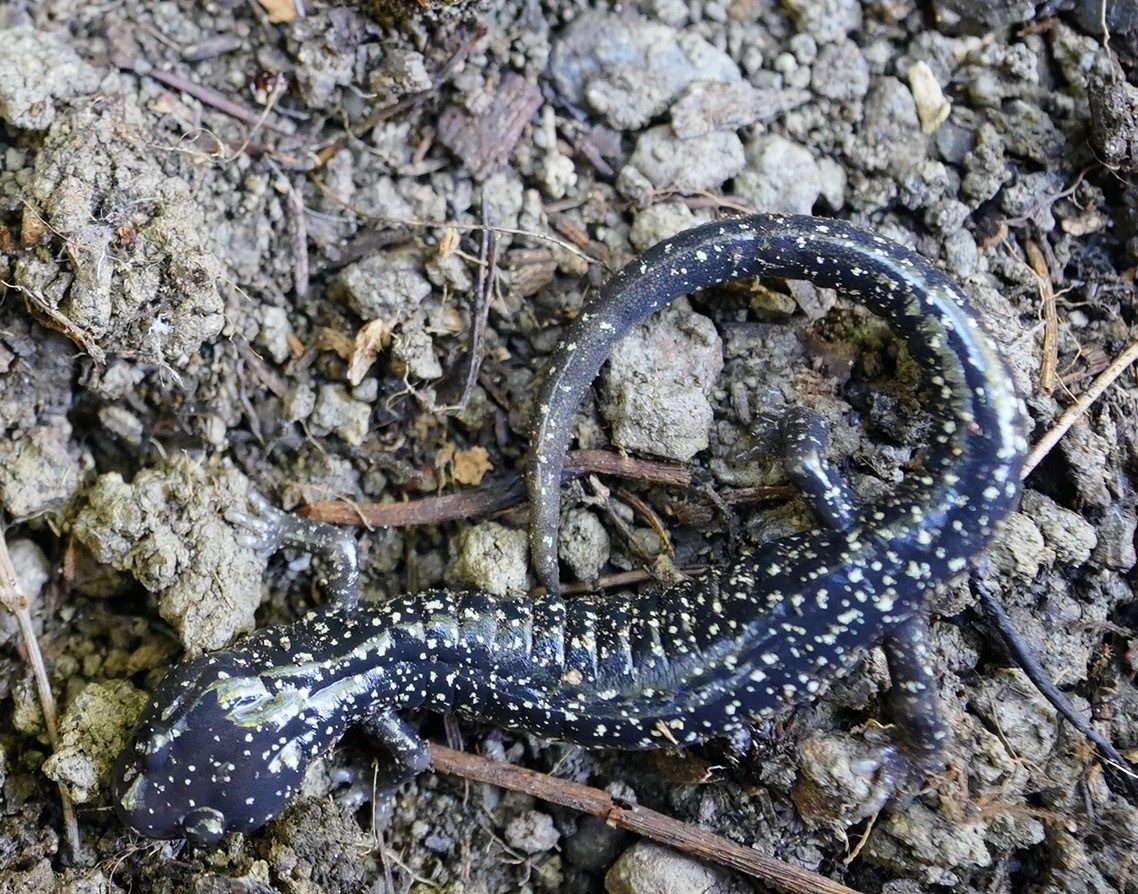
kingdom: Animalia
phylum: Chordata
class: Amphibia
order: Caudata
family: Plethodontidae
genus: Aneides
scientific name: Aneides flavipunctatus
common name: Black salamander
